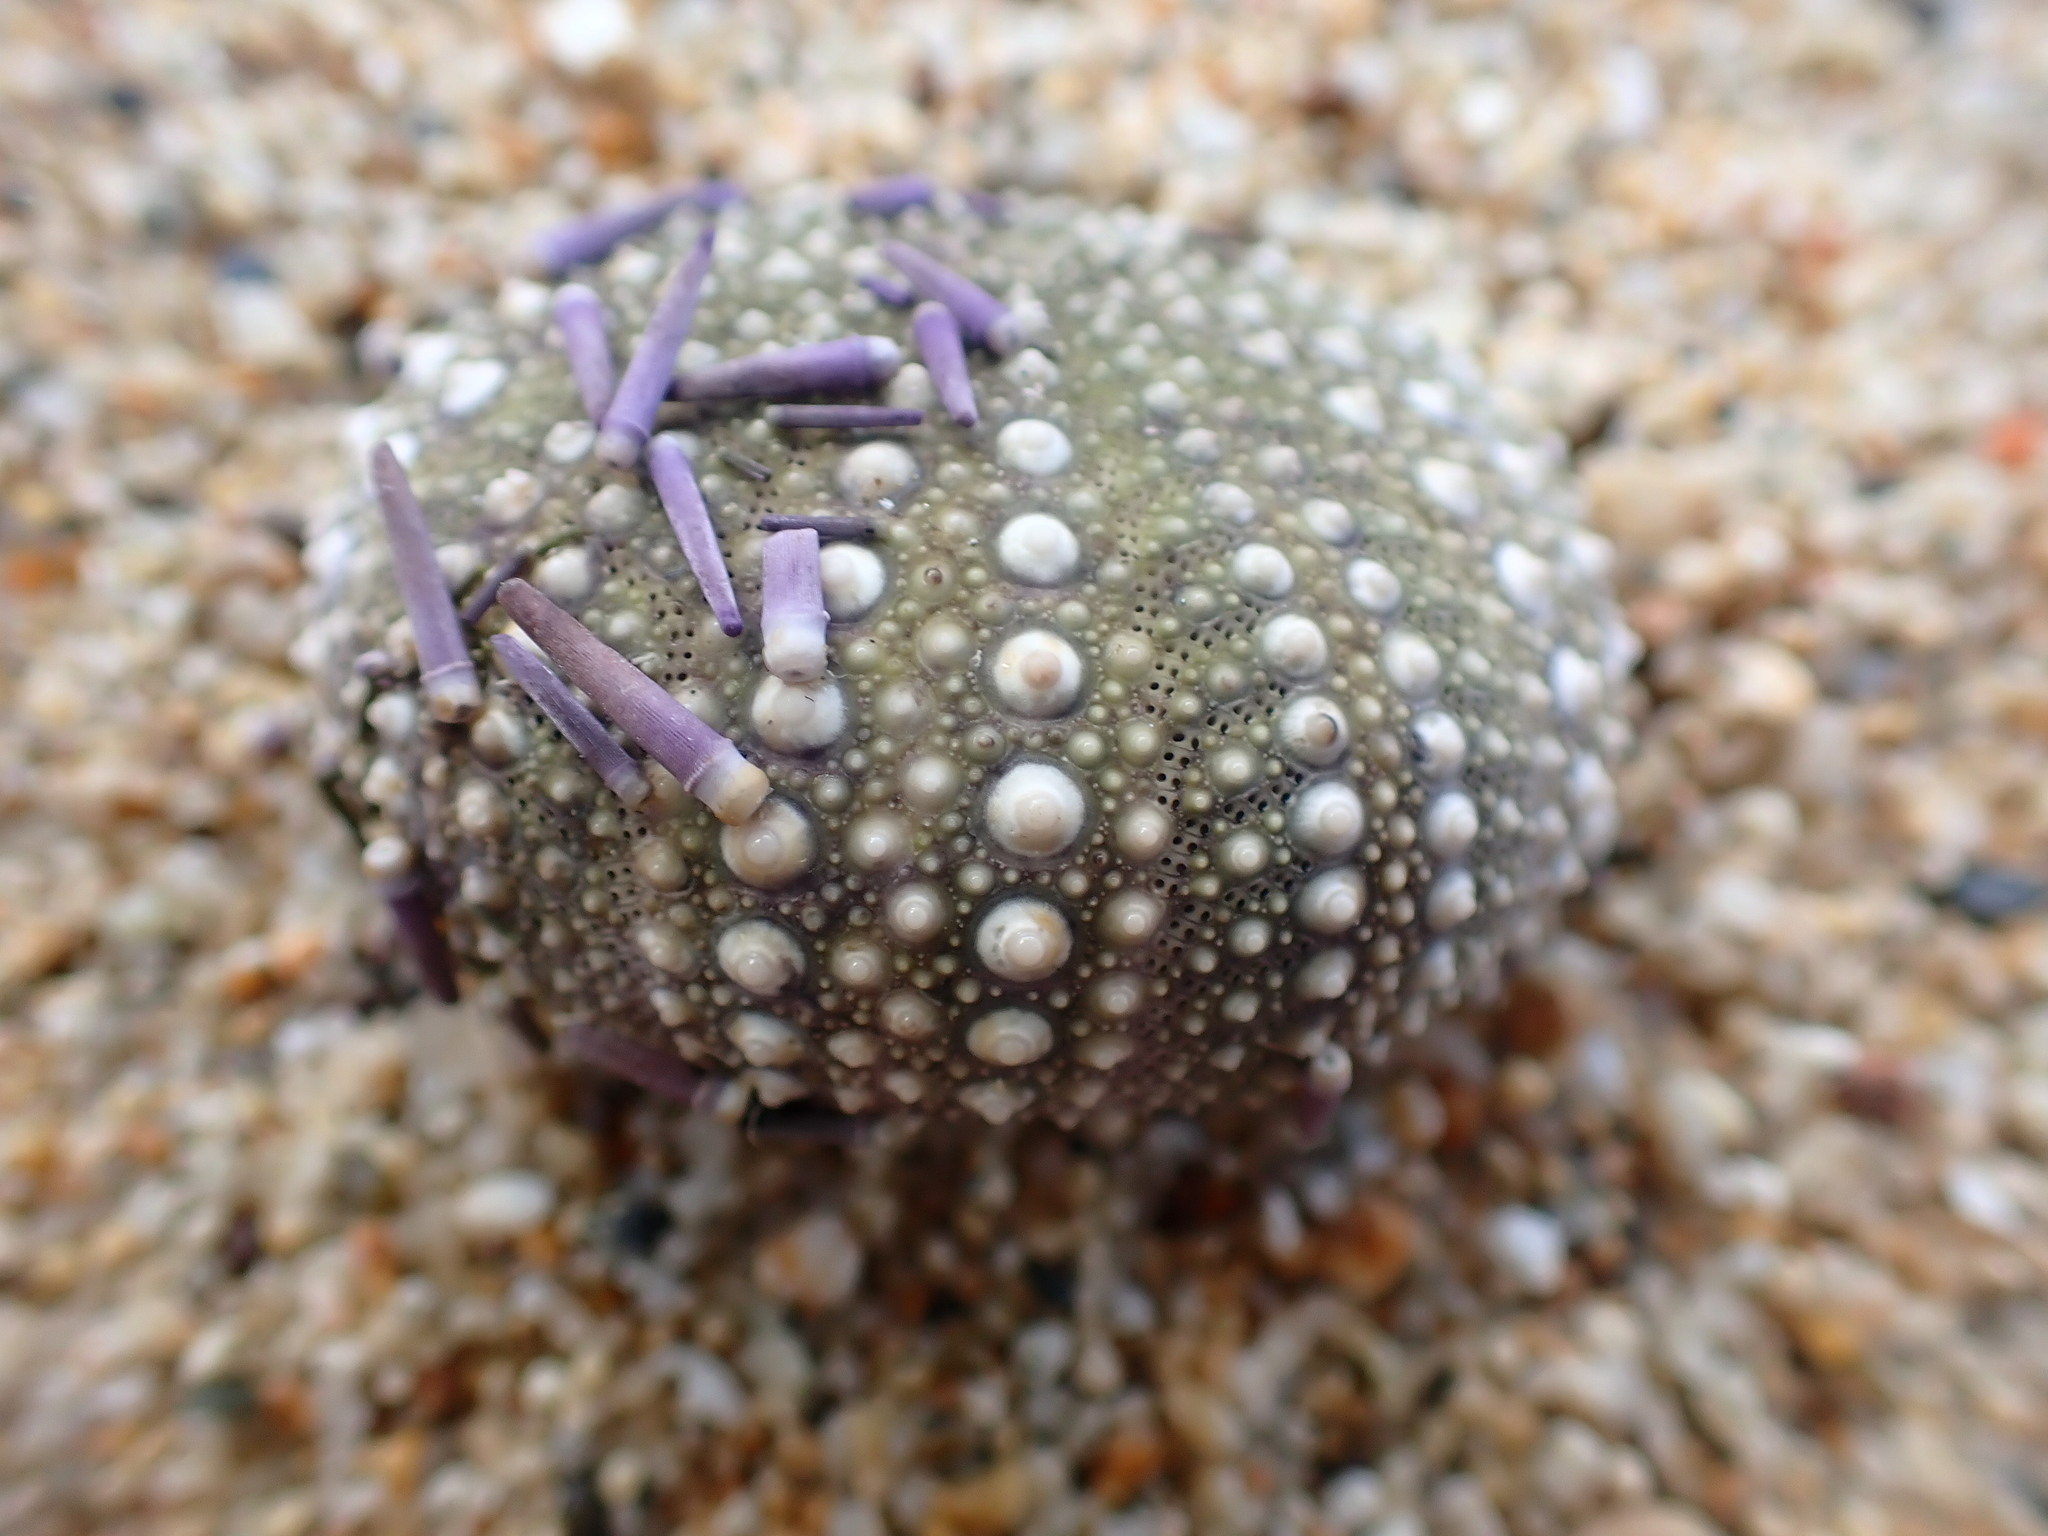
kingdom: Animalia
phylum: Echinodermata
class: Echinoidea
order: Camarodonta
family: Strongylocentrotidae
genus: Strongylocentrotus
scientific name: Strongylocentrotus purpuratus
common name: Purple sea urchin
